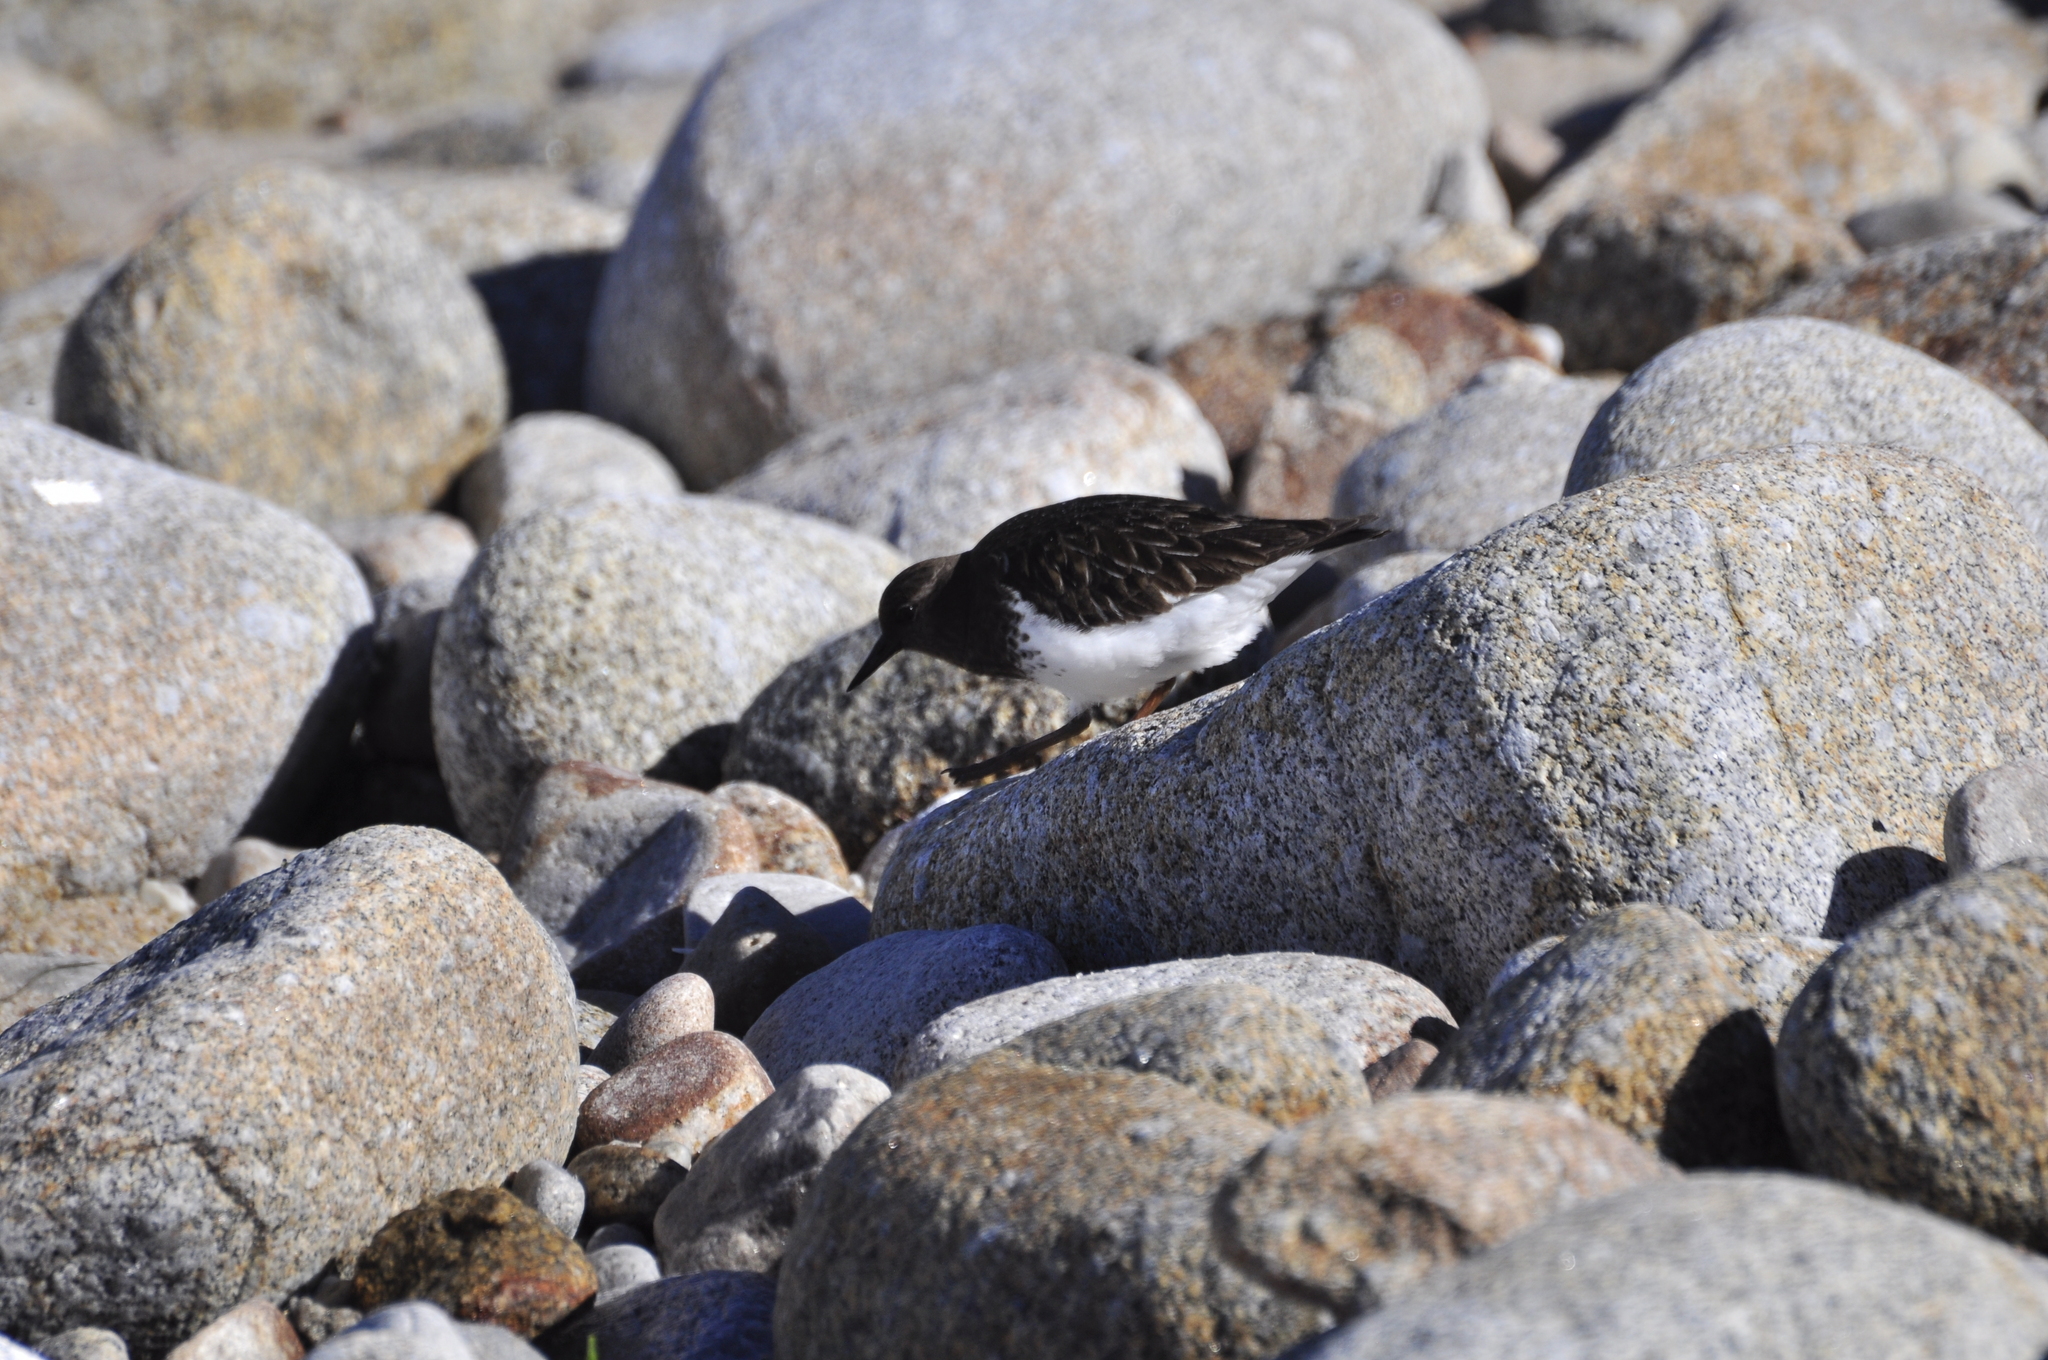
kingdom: Animalia
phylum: Chordata
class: Aves
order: Charadriiformes
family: Scolopacidae
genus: Arenaria
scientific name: Arenaria melanocephala
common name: Black turnstone
